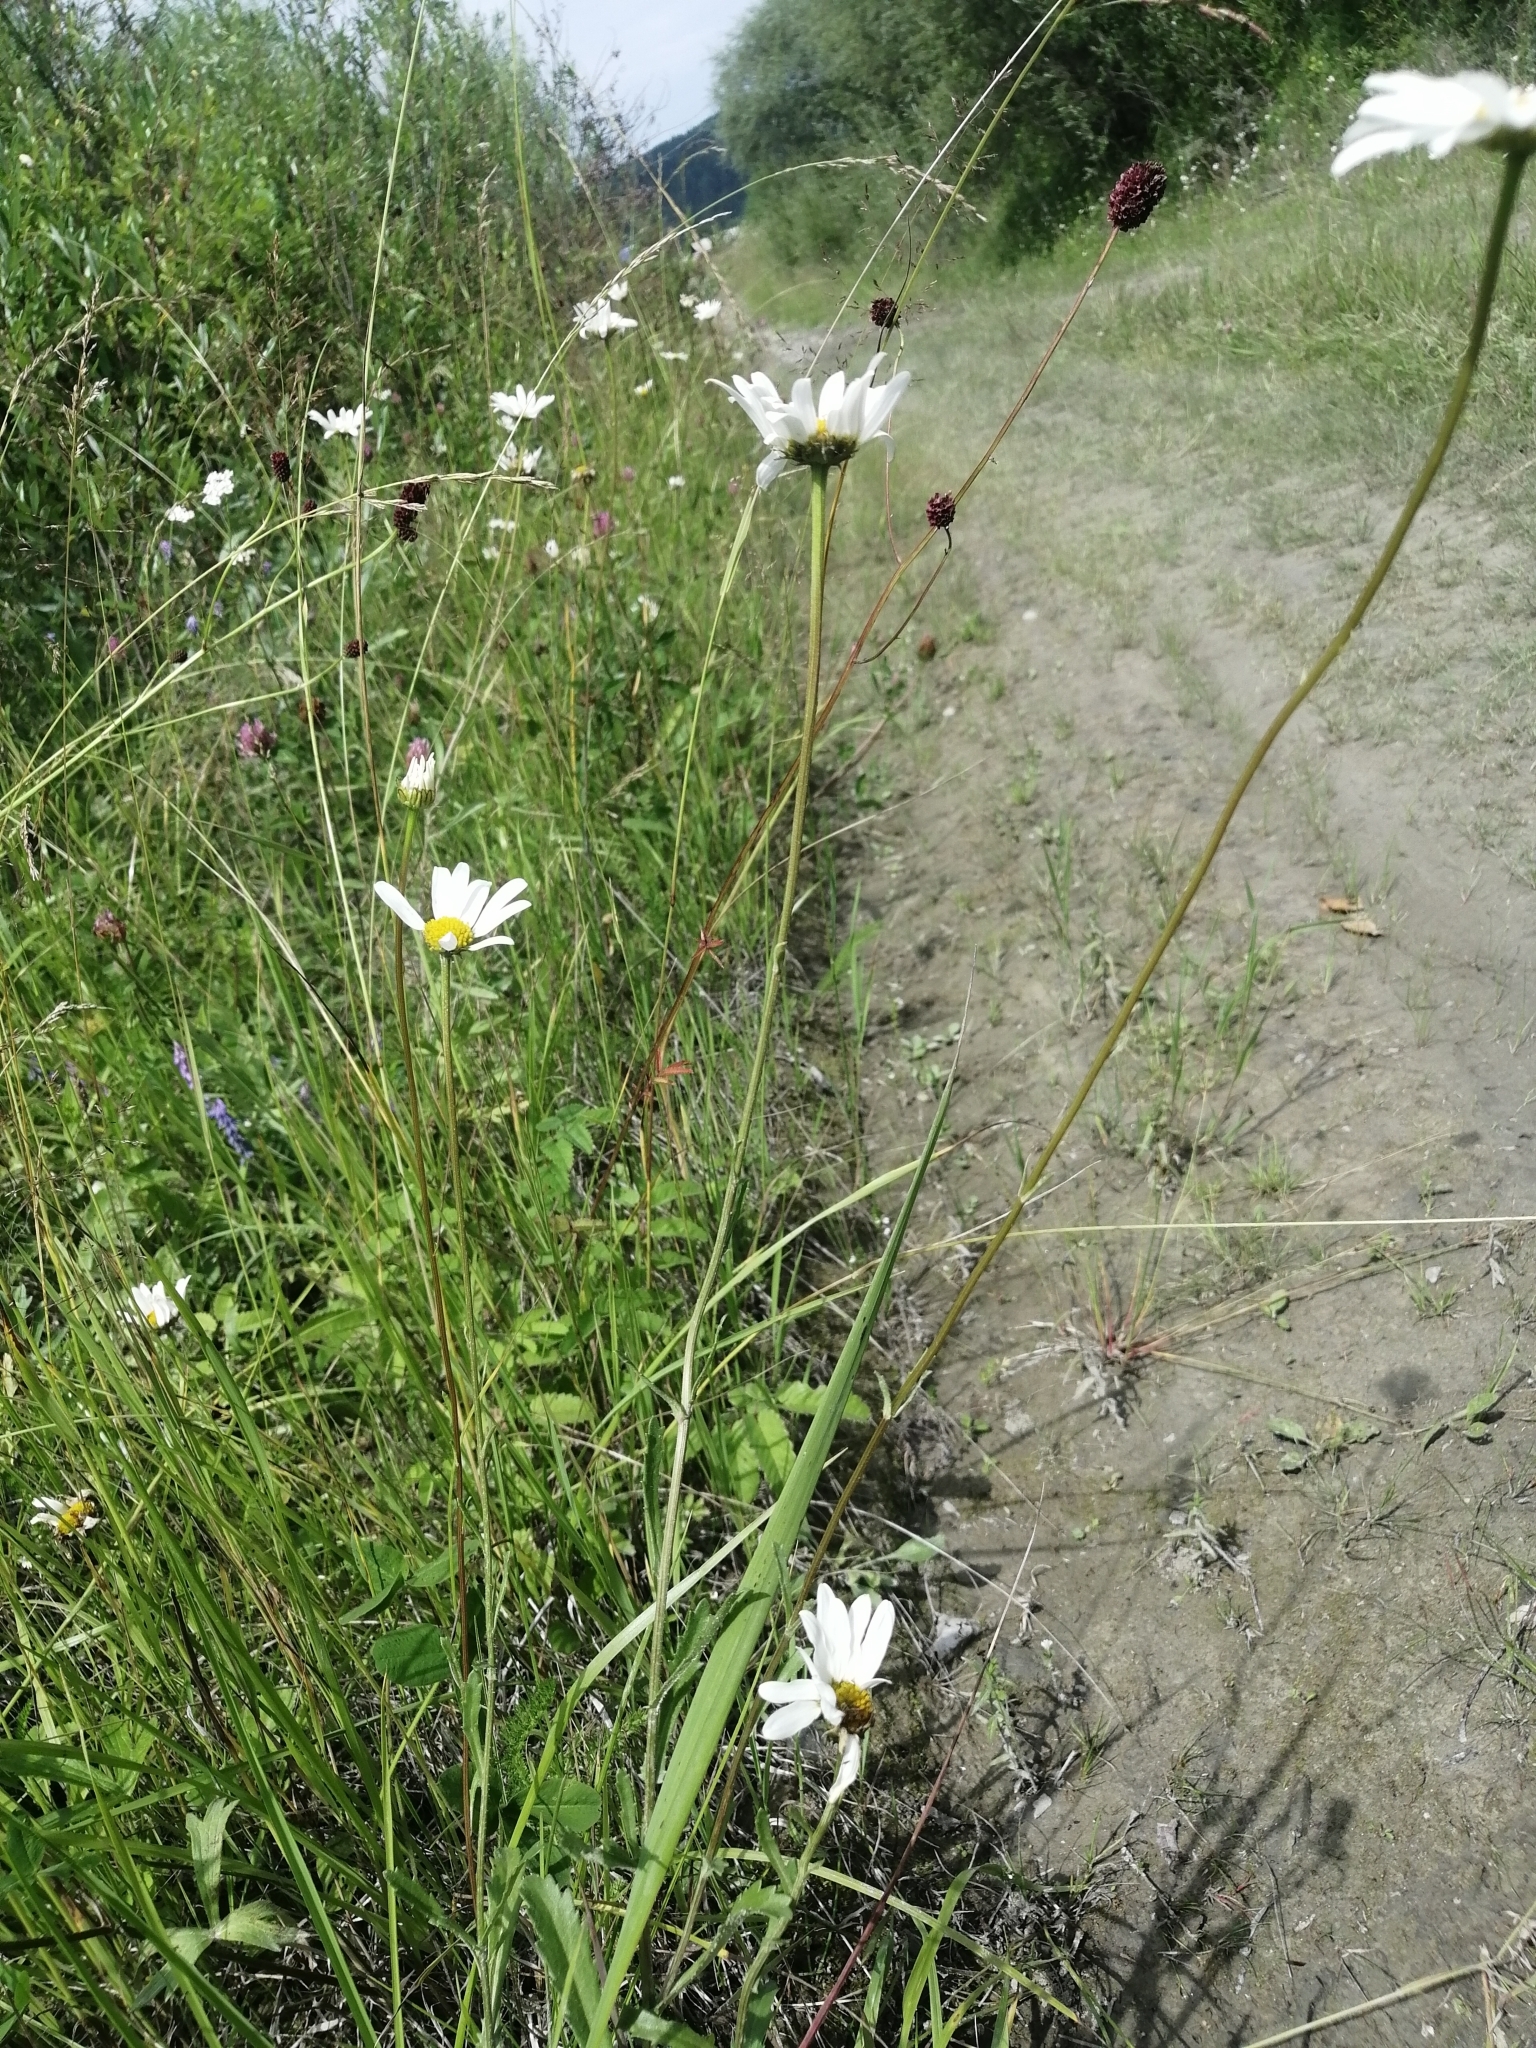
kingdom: Plantae
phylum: Tracheophyta
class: Magnoliopsida
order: Asterales
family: Asteraceae
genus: Leucanthemum
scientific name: Leucanthemum ircutianum
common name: Daisy
